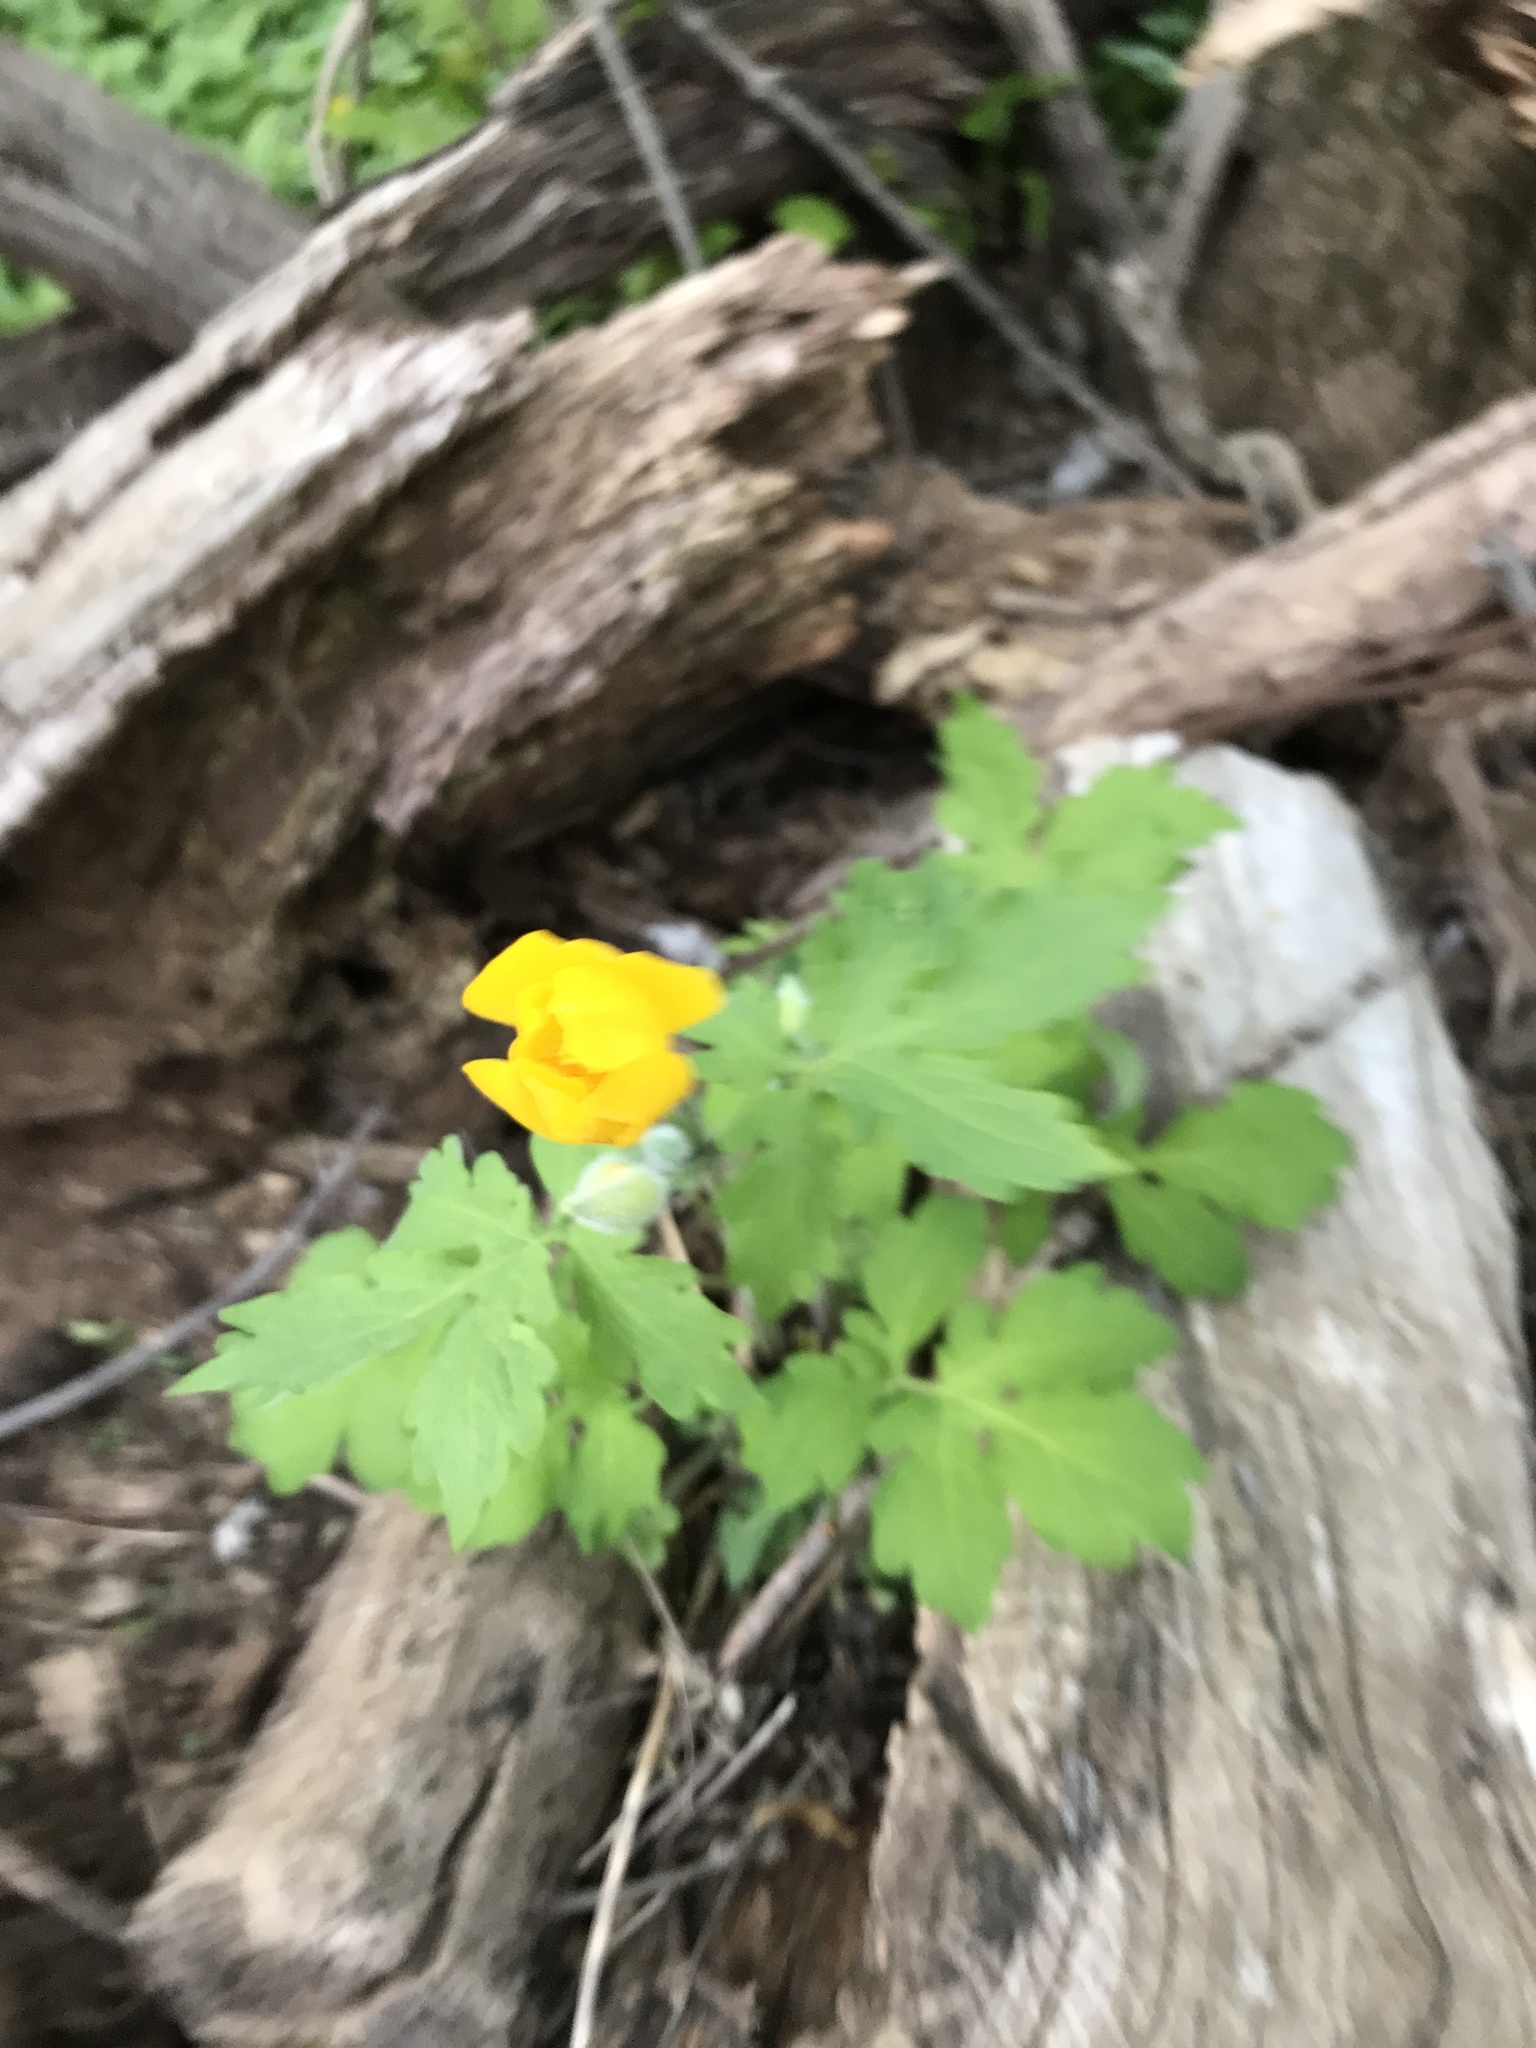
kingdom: Plantae
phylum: Tracheophyta
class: Magnoliopsida
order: Ranunculales
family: Papaveraceae
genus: Stylophorum
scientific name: Stylophorum diphyllum
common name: Celandine poppy
